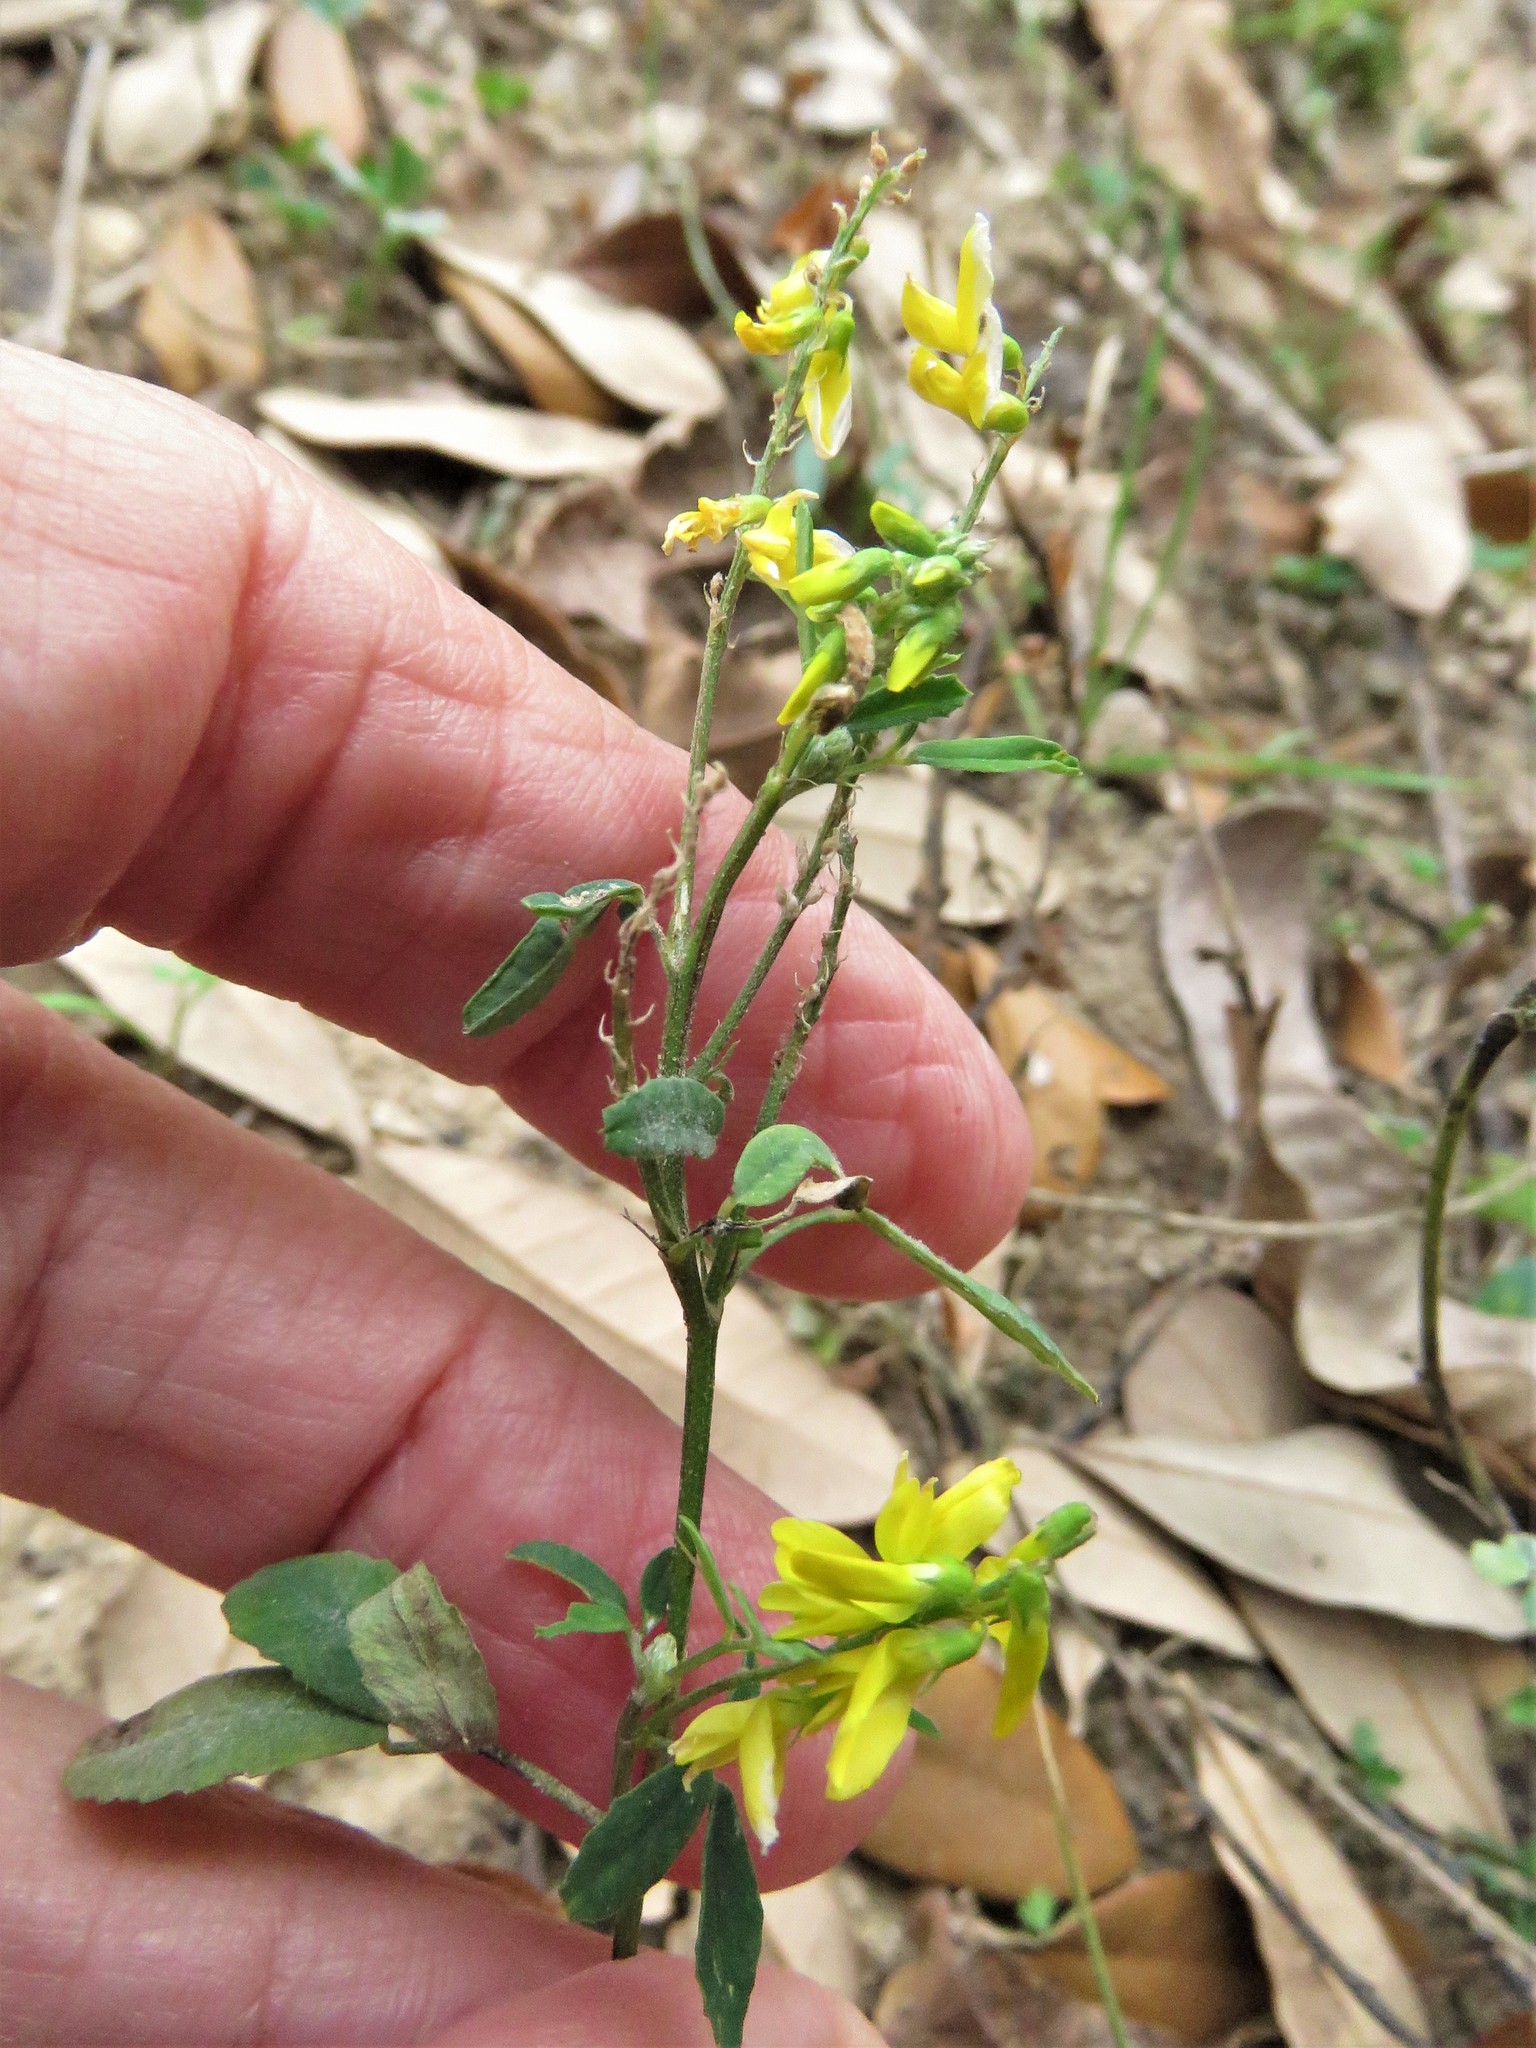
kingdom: Plantae
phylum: Tracheophyta
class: Magnoliopsida
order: Fabales
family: Fabaceae
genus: Melilotus
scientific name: Melilotus officinalis
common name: Sweetclover
